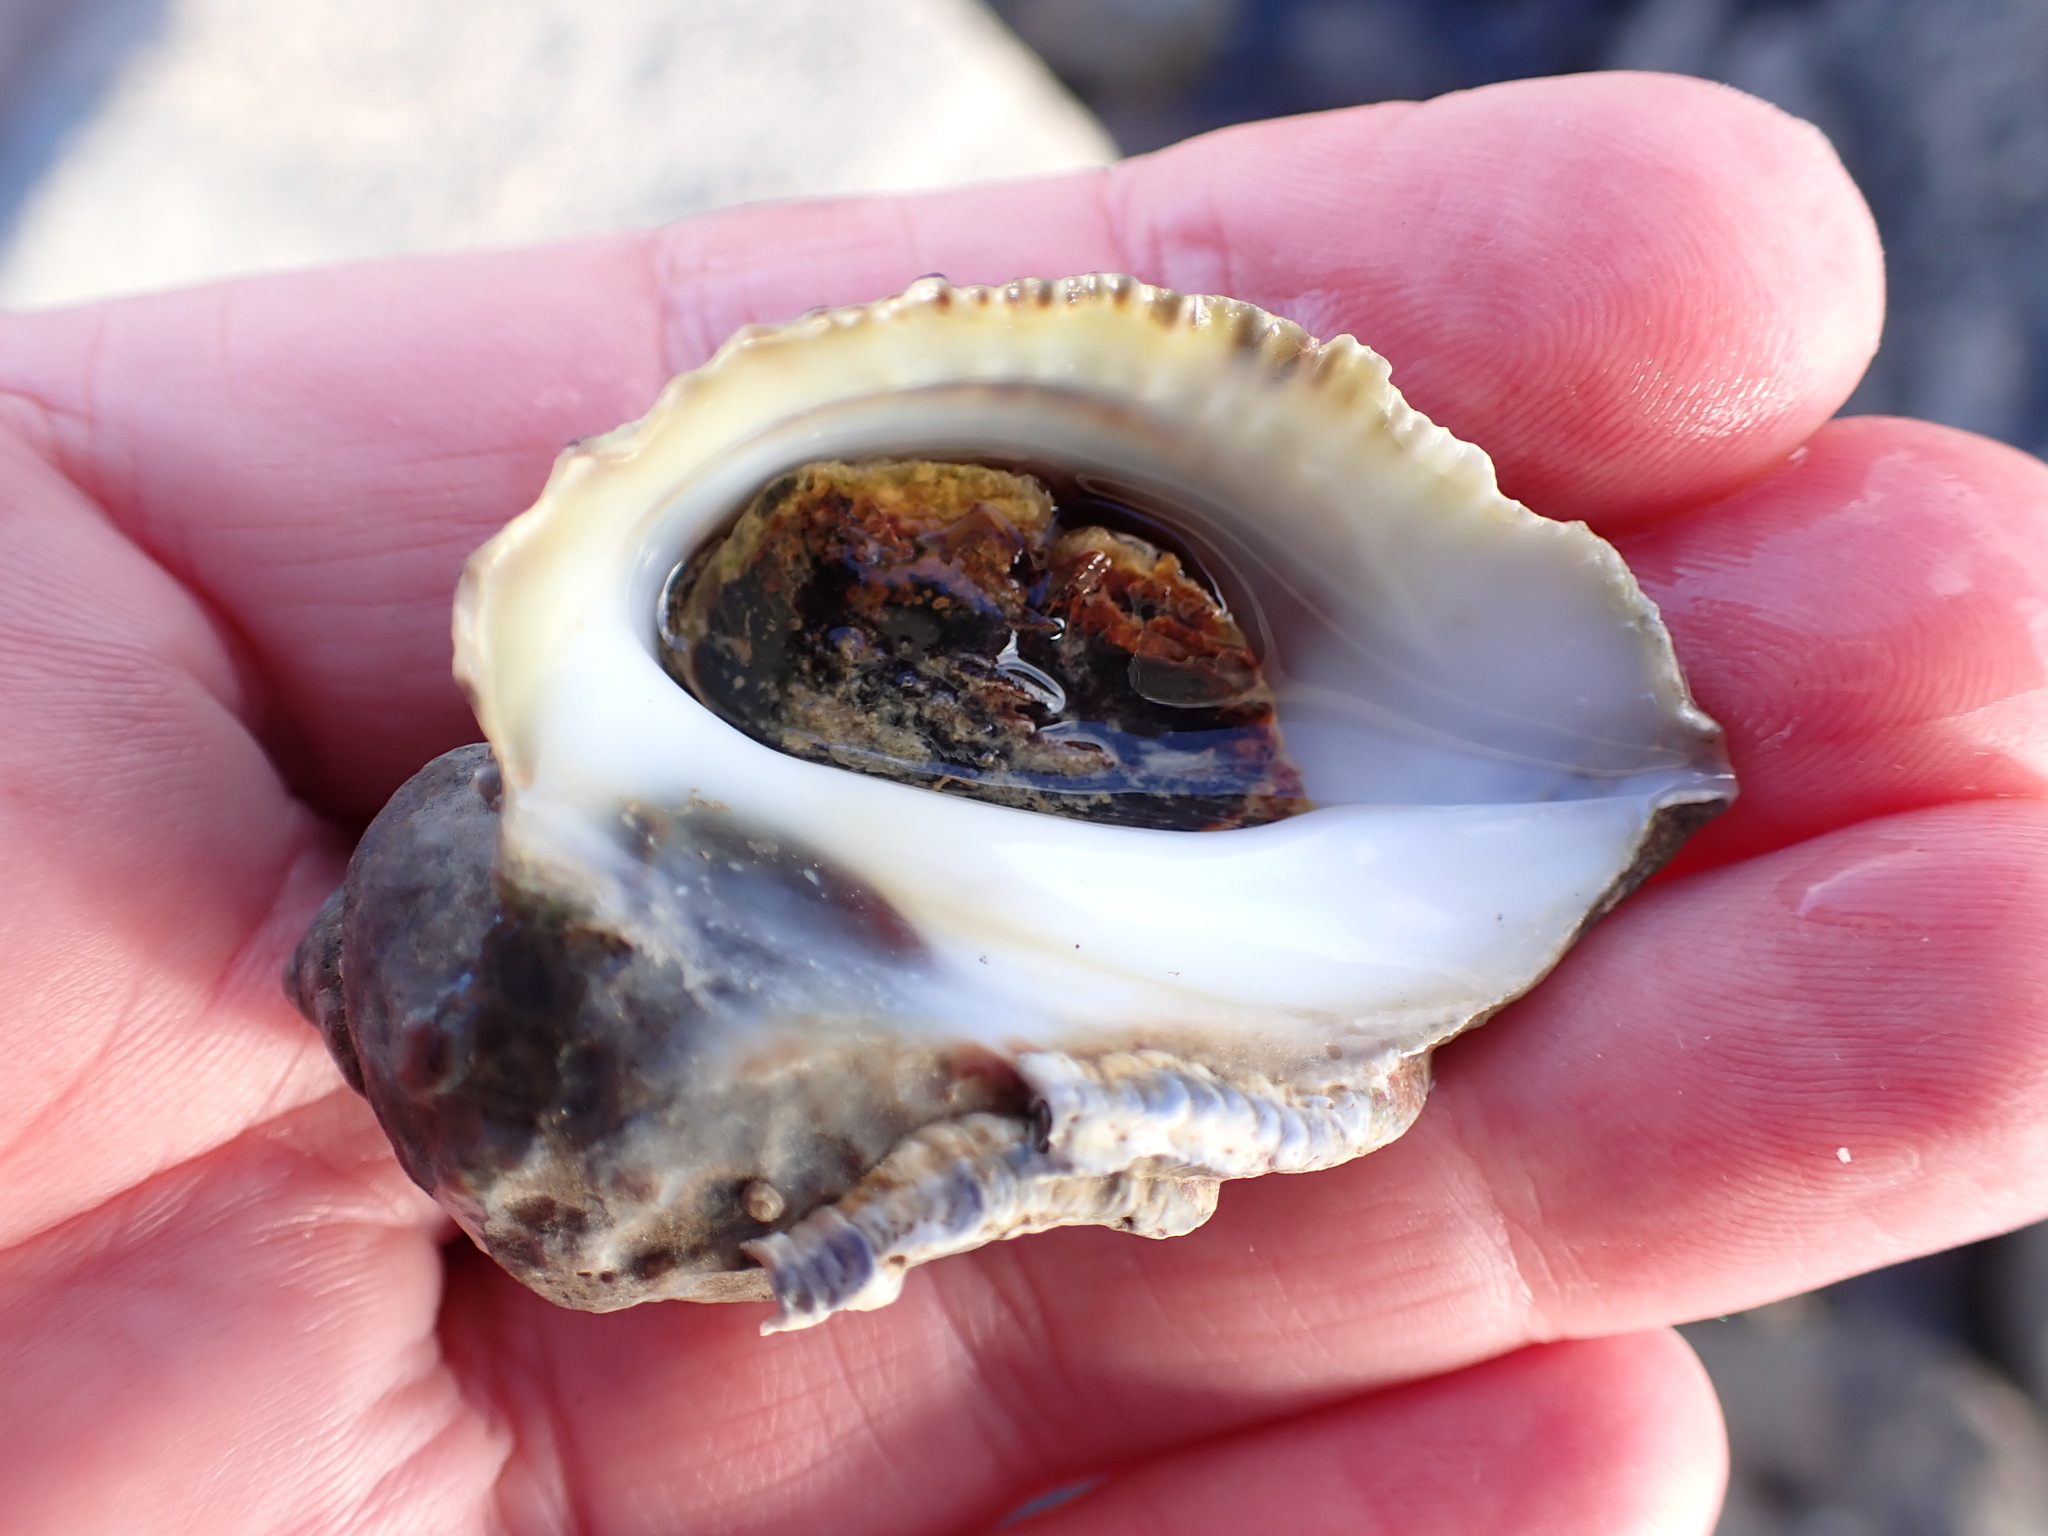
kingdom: Animalia
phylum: Mollusca
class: Gastropoda
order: Neogastropoda
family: Muricidae
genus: Haustrum
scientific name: Haustrum haustorium
